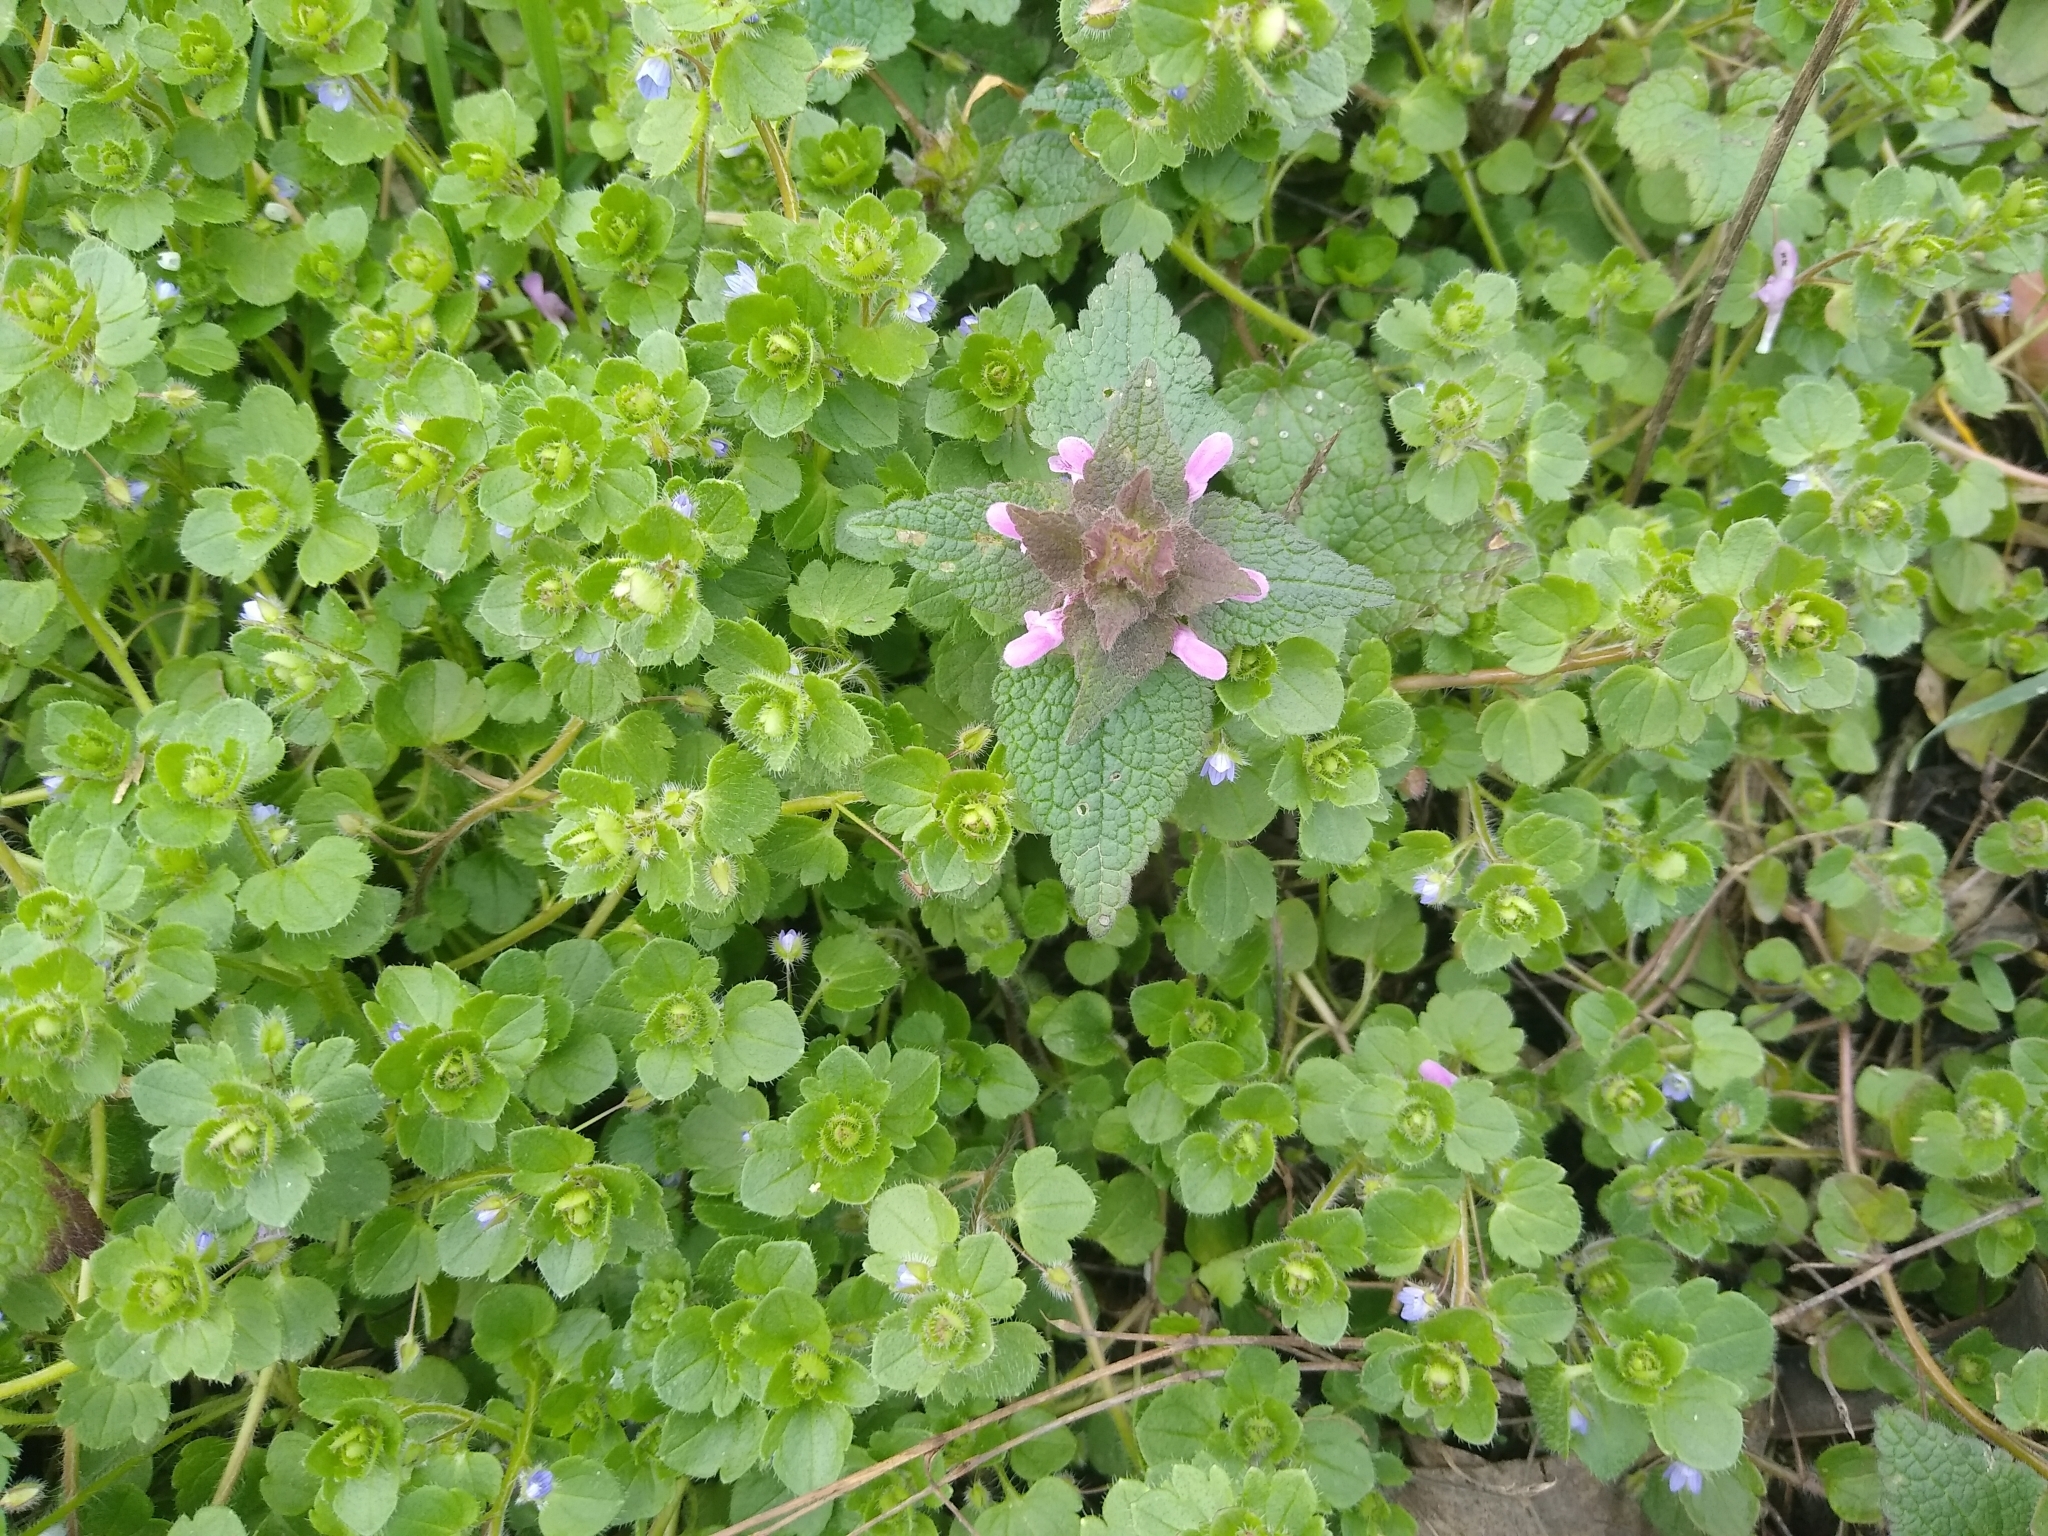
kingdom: Plantae
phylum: Tracheophyta
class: Magnoliopsida
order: Lamiales
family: Lamiaceae
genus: Lamium
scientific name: Lamium purpureum
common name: Red dead-nettle
